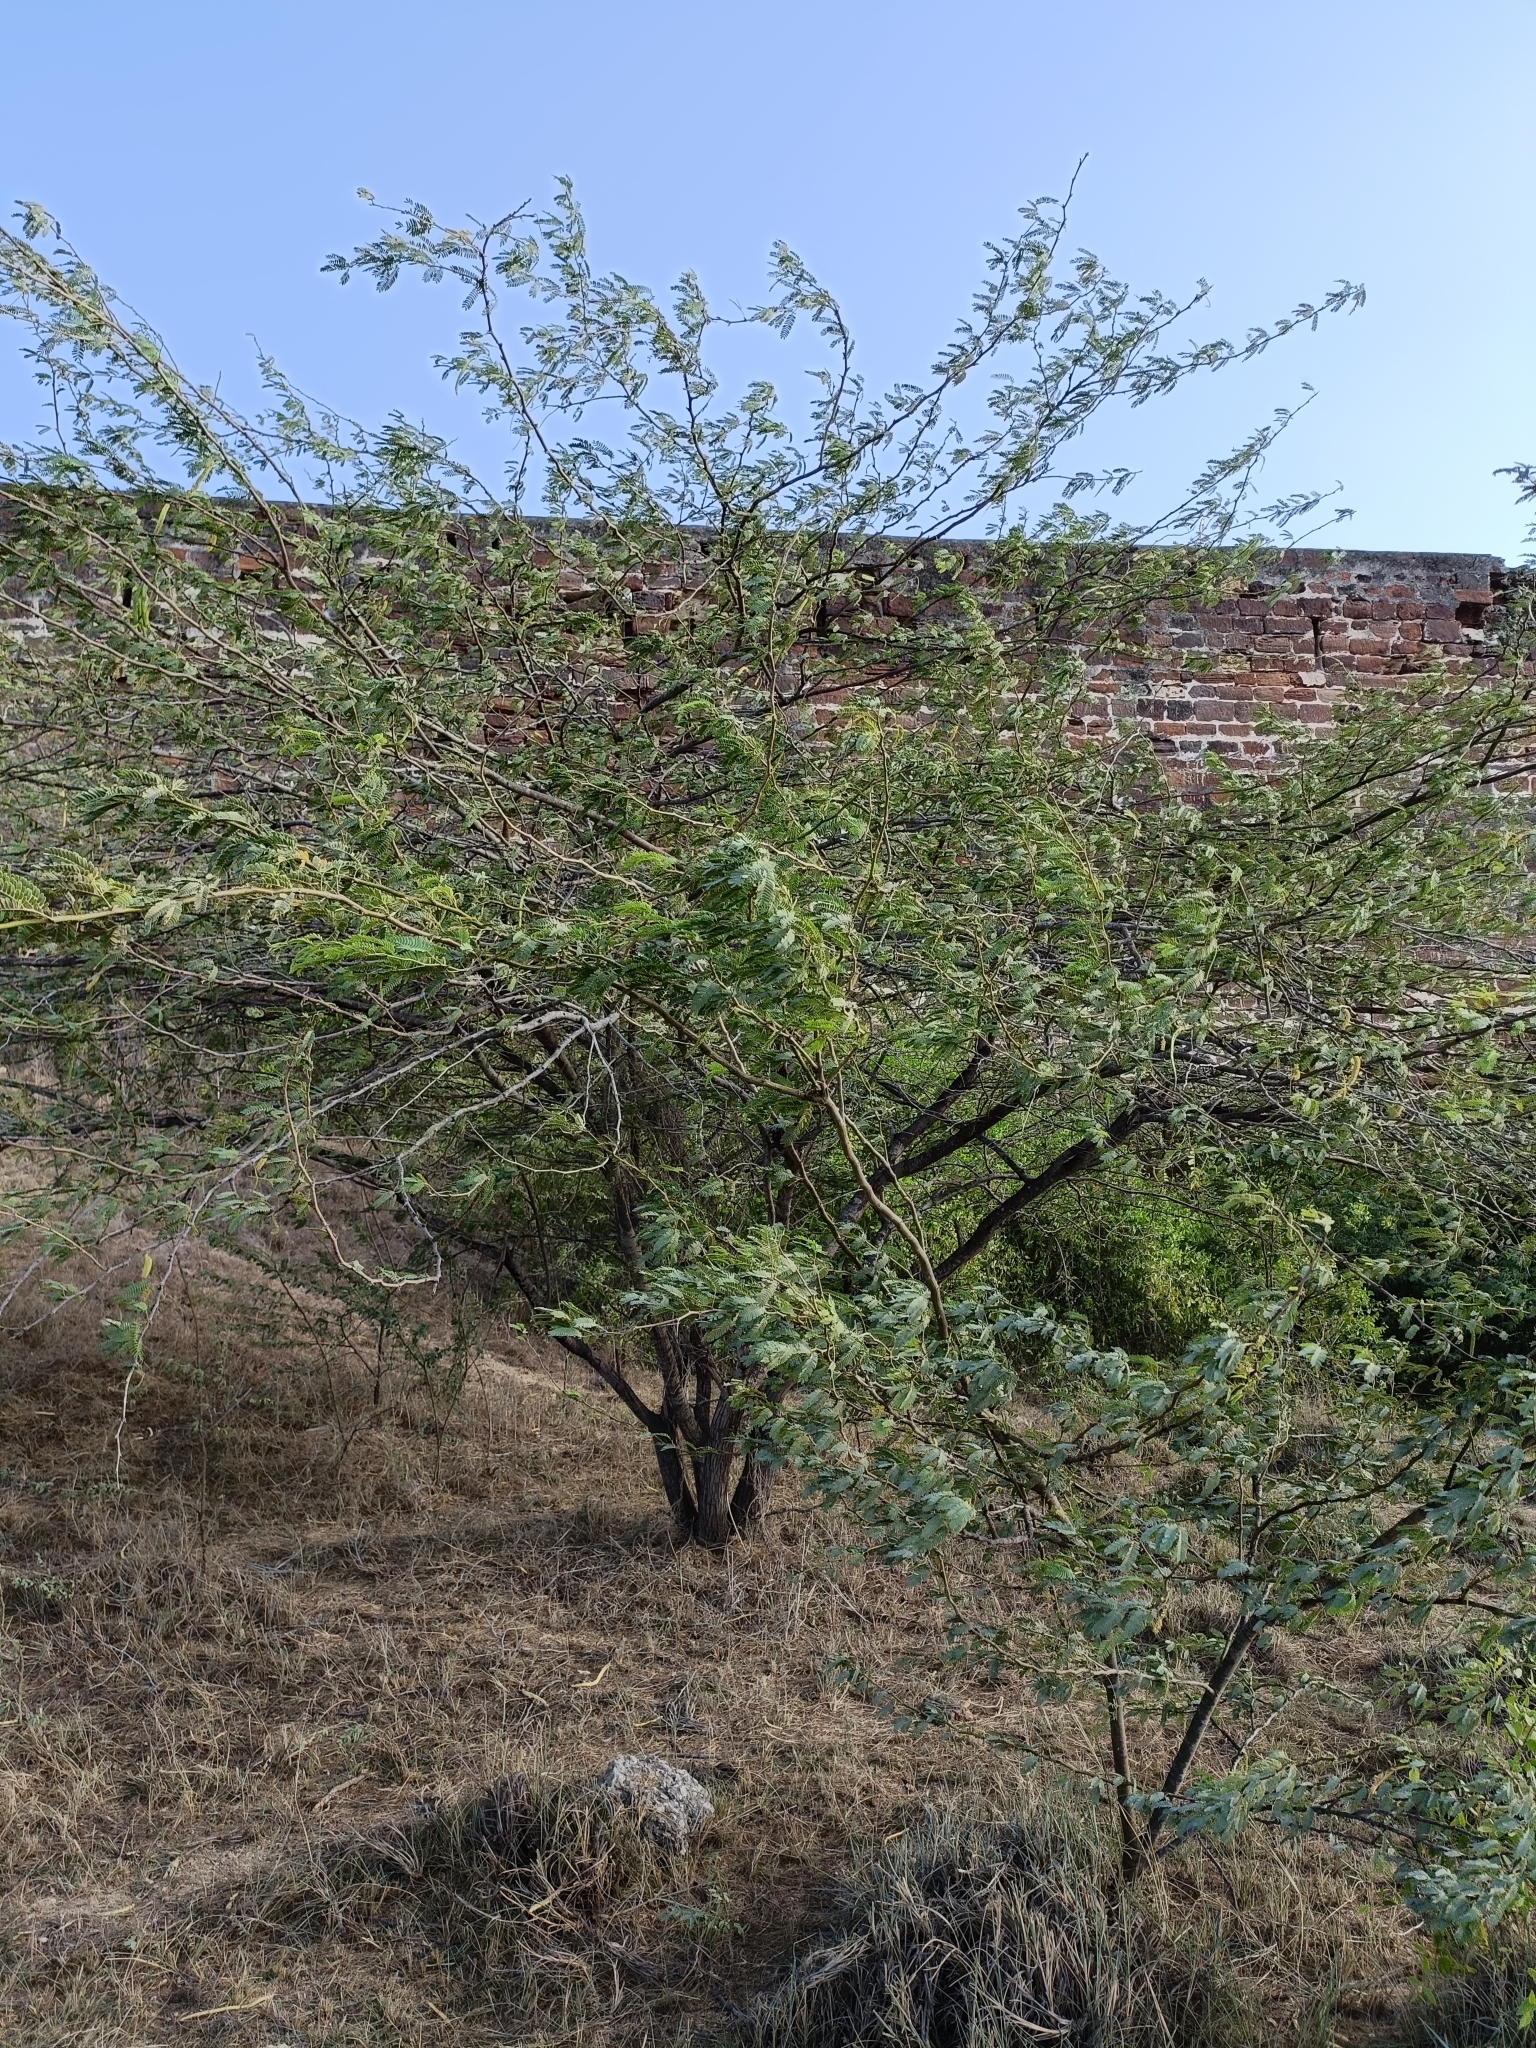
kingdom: Plantae
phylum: Tracheophyta
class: Magnoliopsida
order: Fabales
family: Fabaceae
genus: Prosopis
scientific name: Prosopis juliflora
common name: Mesquite
